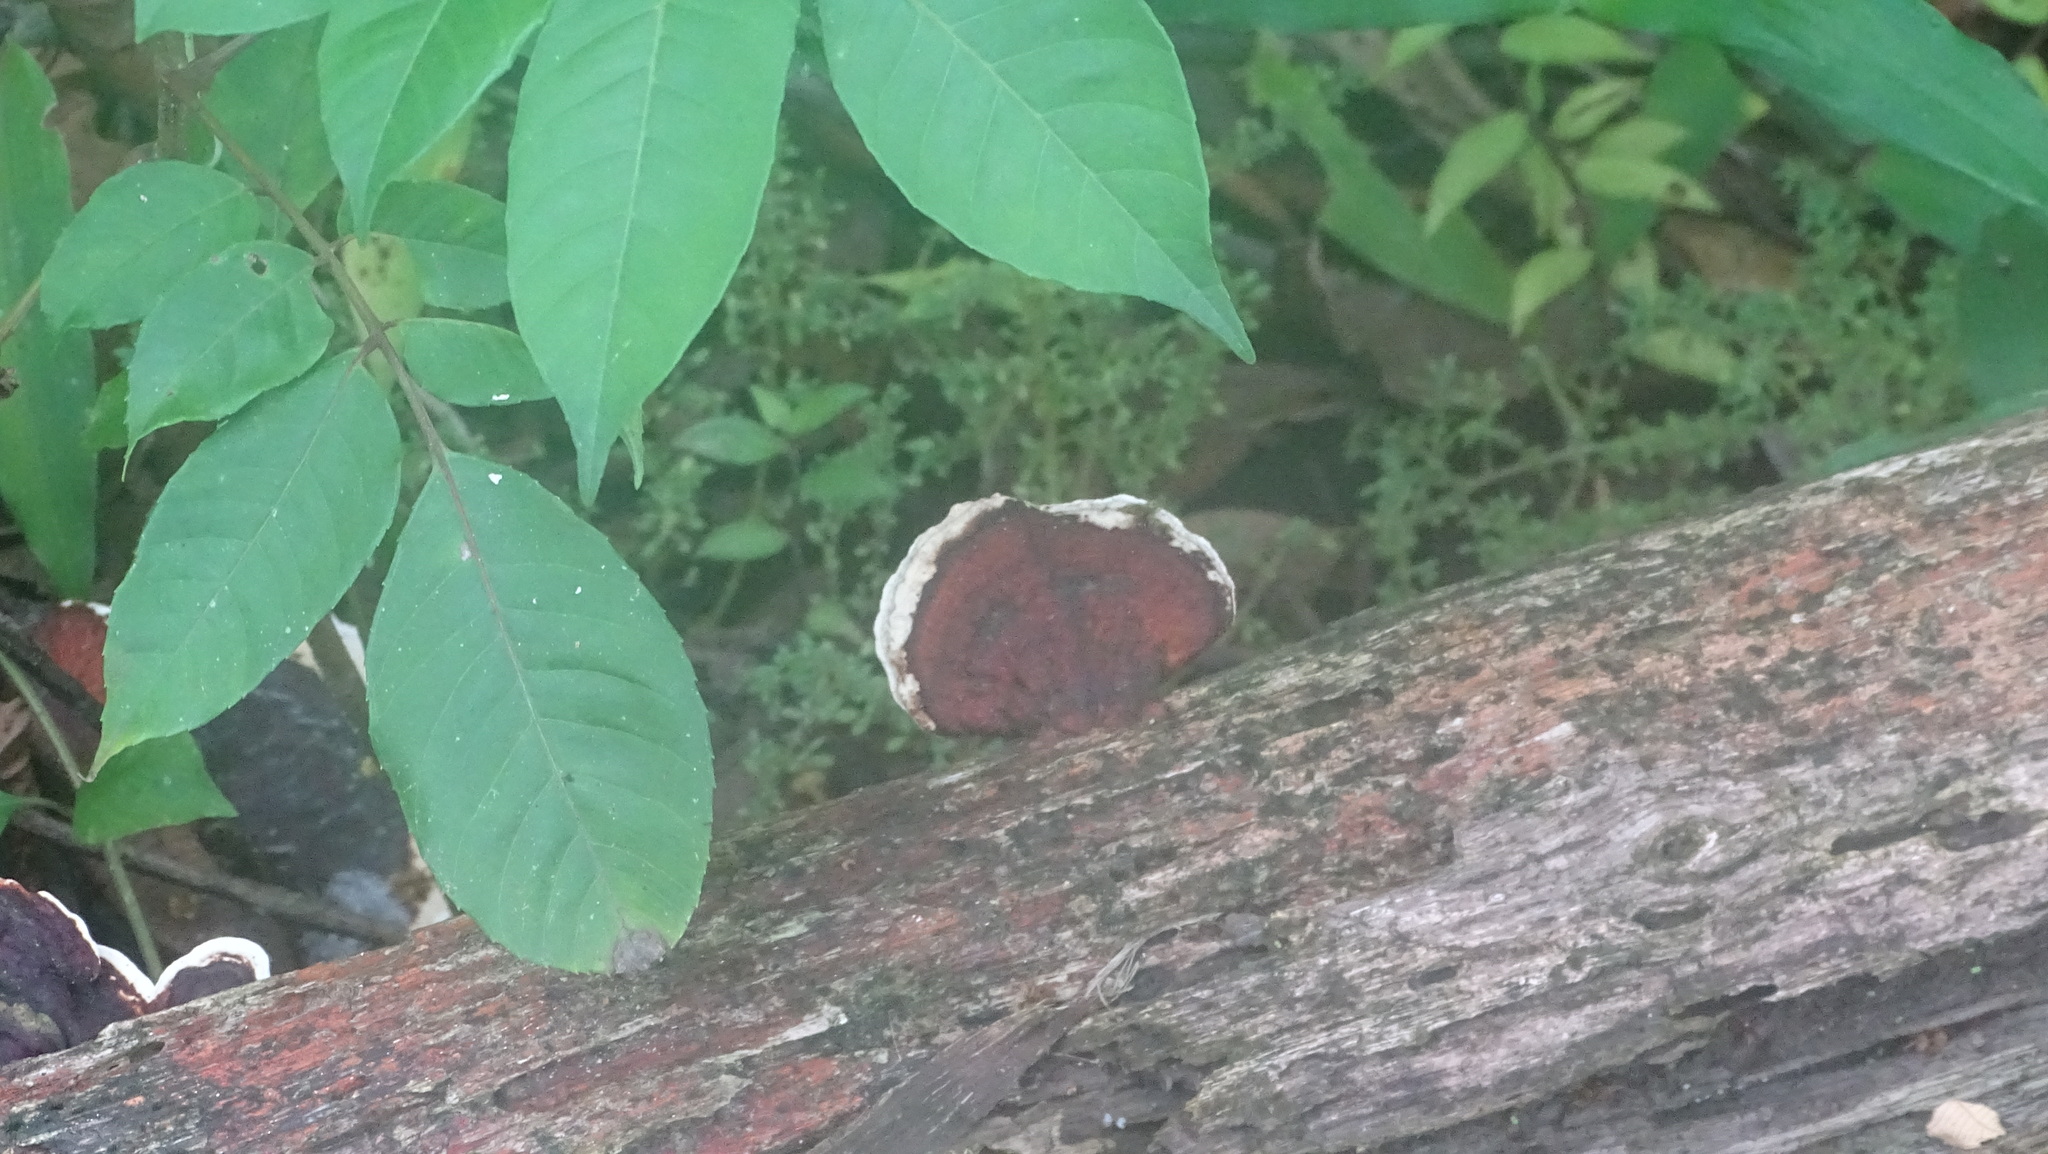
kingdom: Fungi
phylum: Basidiomycota
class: Agaricomycetes
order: Polyporales
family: Polyporaceae
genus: Earliella
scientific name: Earliella scabrosa
